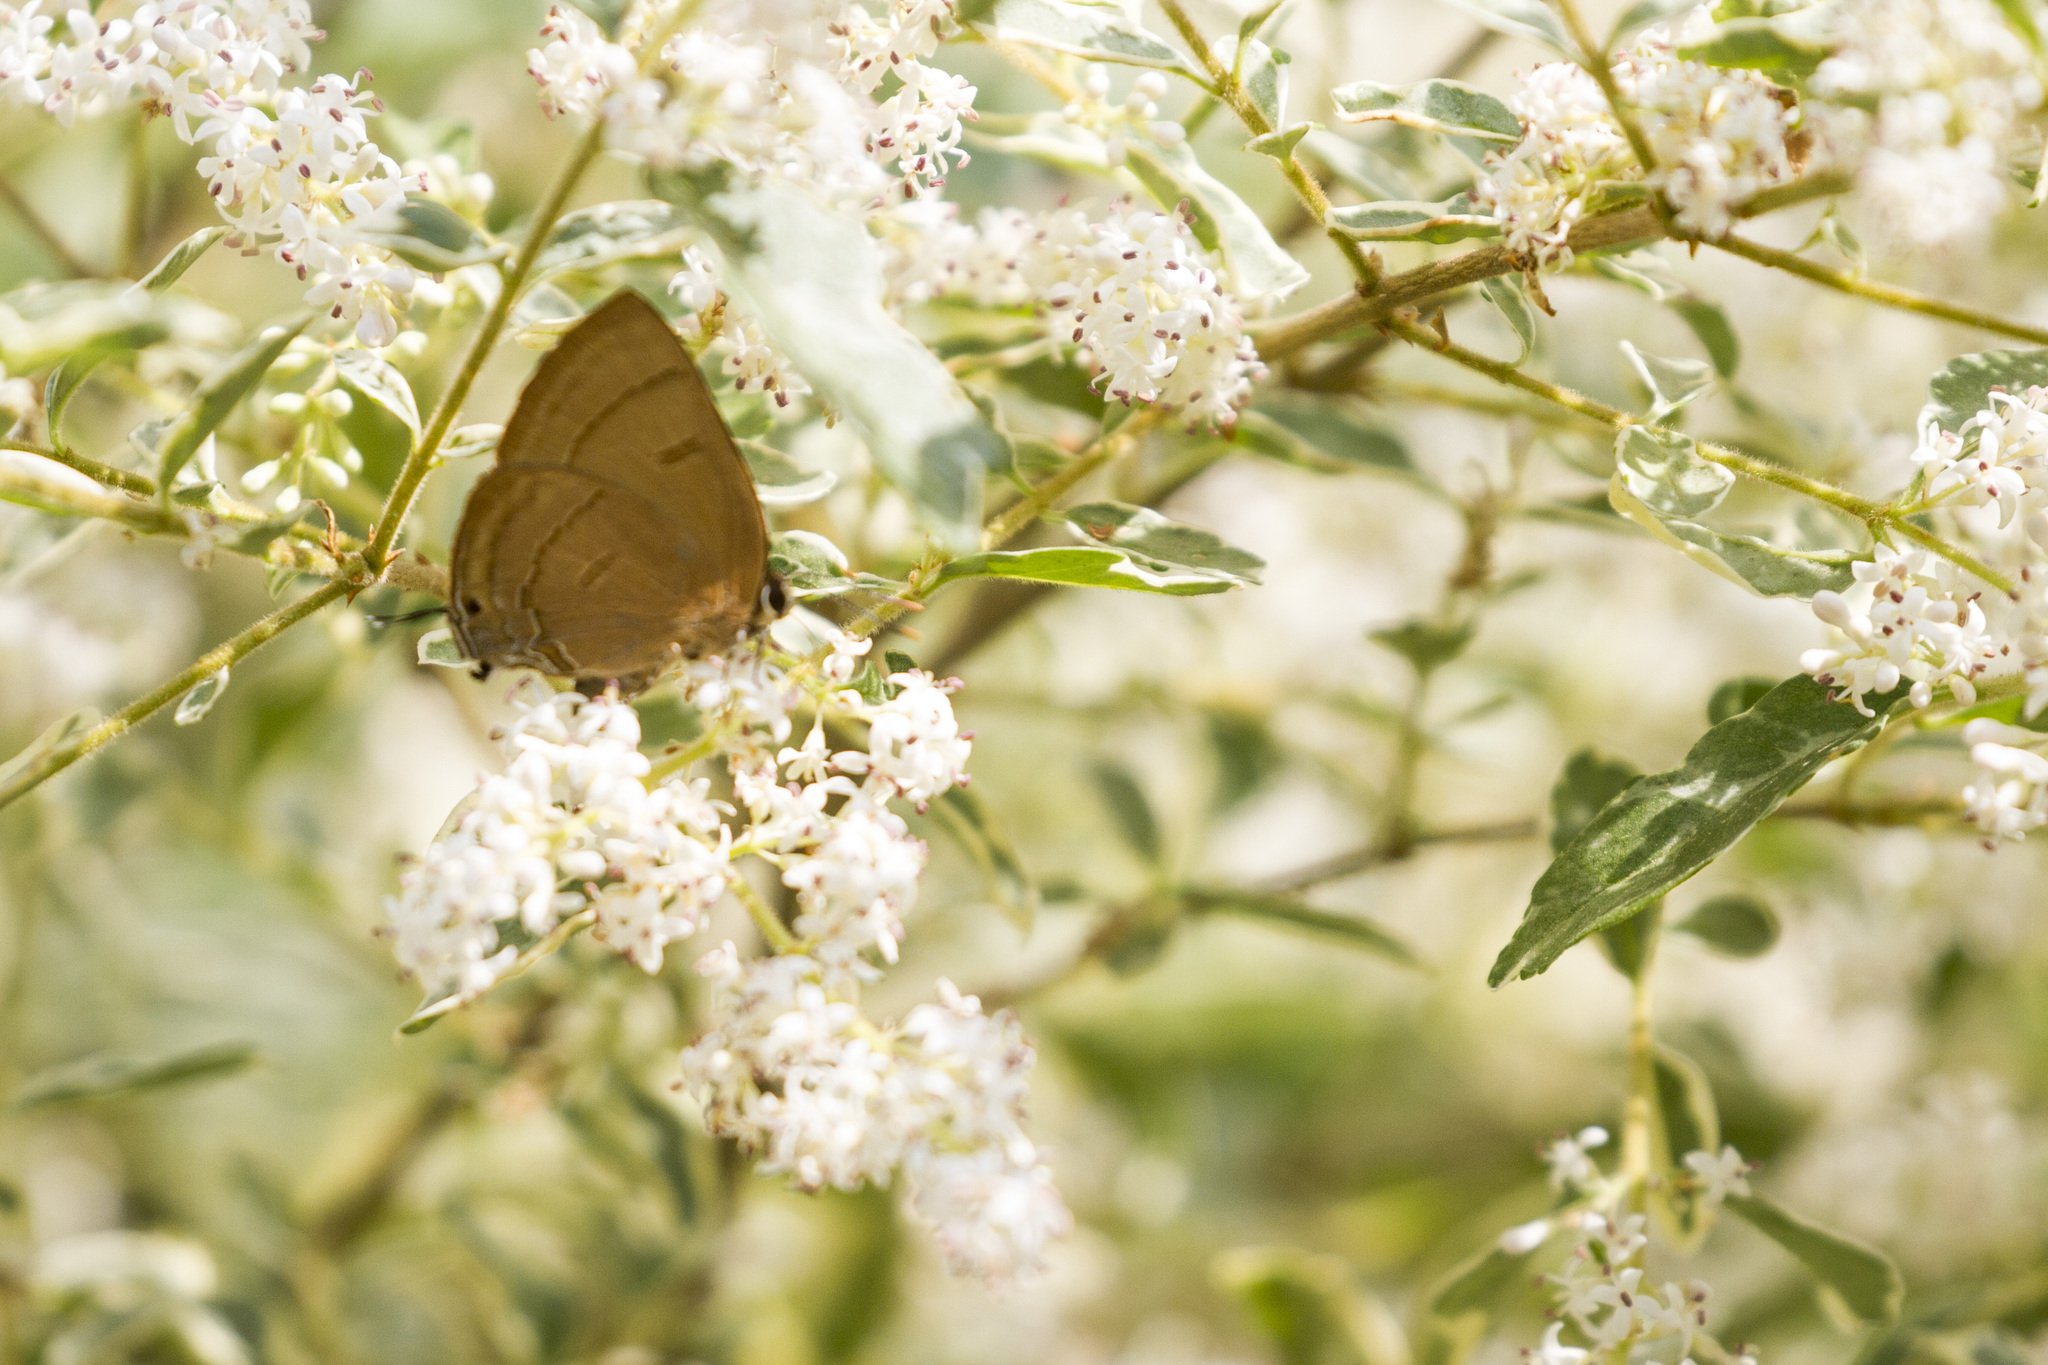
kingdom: Animalia
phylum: Arthropoda
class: Insecta
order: Lepidoptera
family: Lycaenidae
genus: Rapala
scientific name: Rapala pheretima
